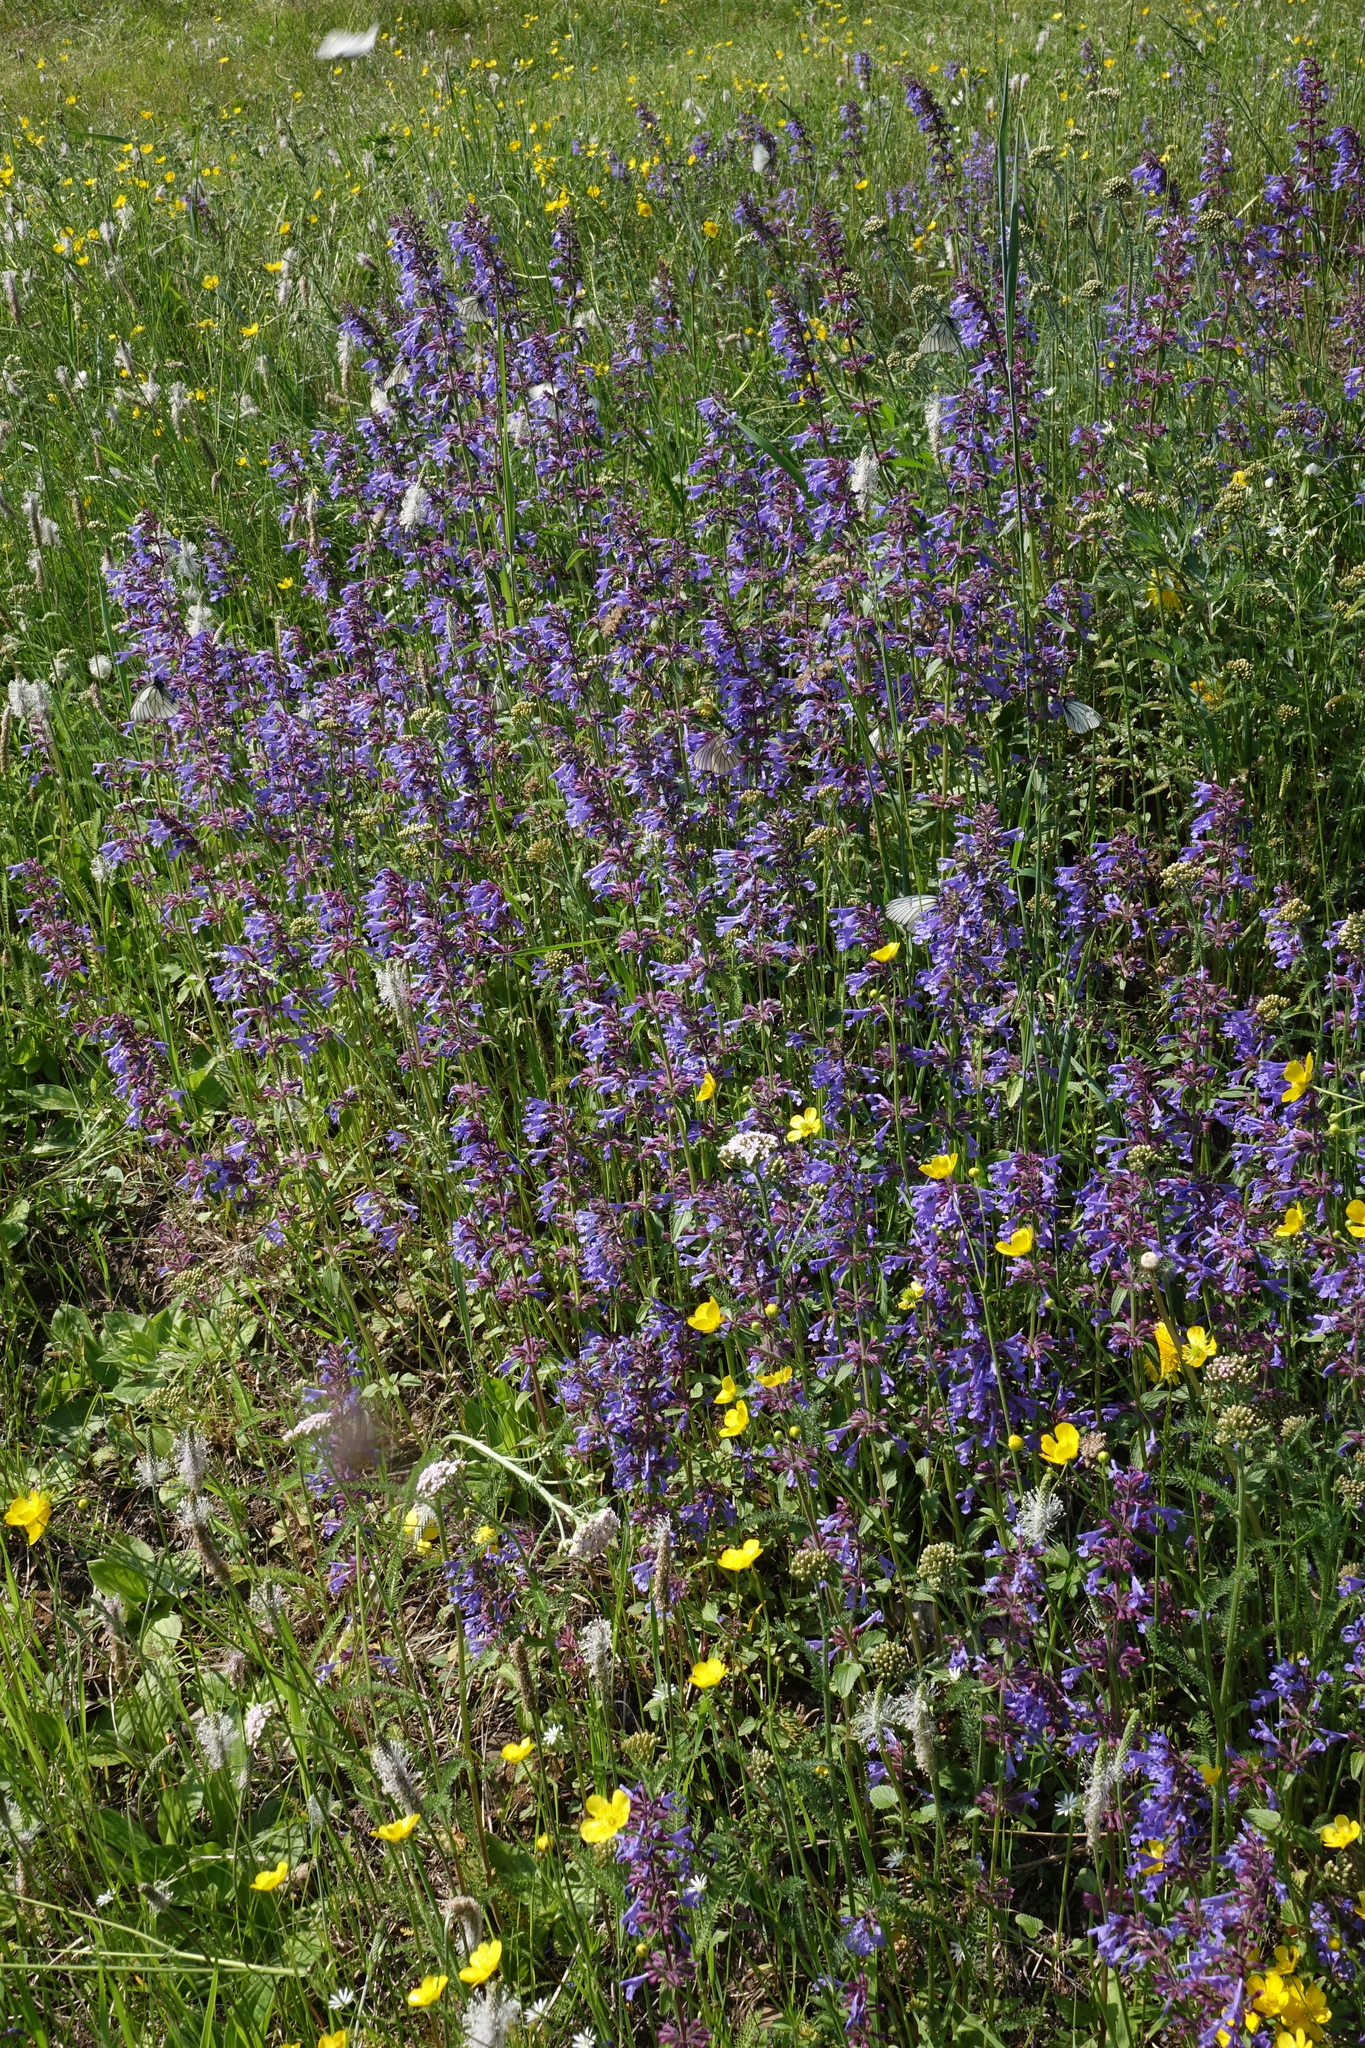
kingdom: Plantae
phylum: Tracheophyta
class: Magnoliopsida
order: Lamiales
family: Lamiaceae
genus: Dracocephalum
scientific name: Dracocephalum nutans
